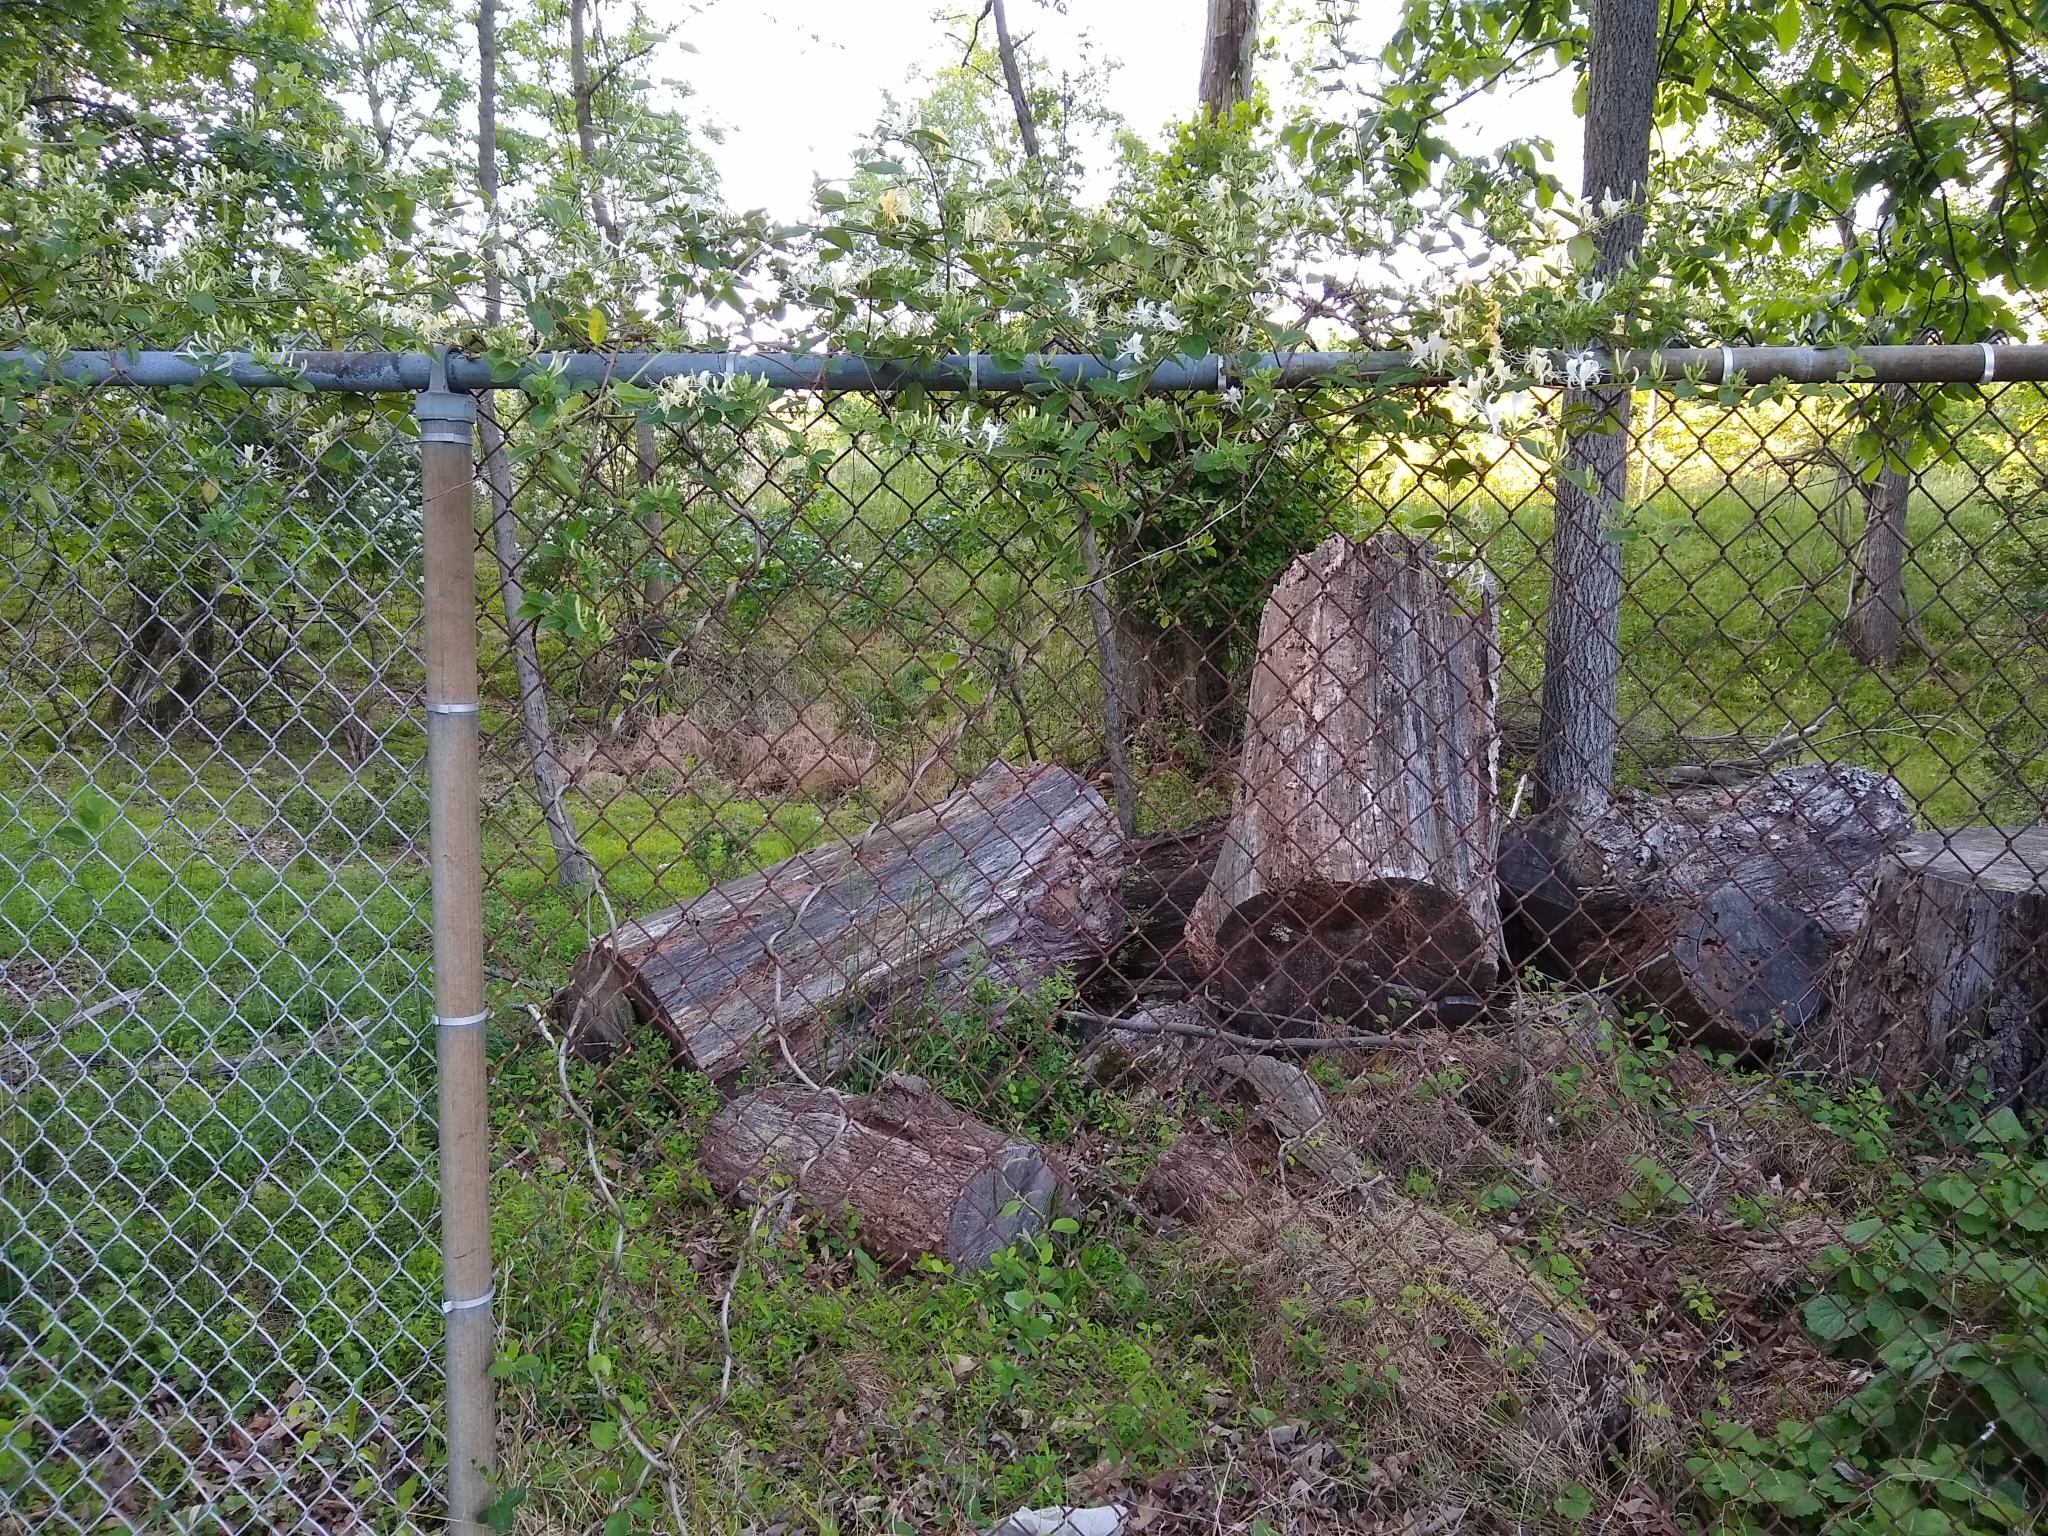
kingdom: Plantae
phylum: Tracheophyta
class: Magnoliopsida
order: Dipsacales
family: Caprifoliaceae
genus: Lonicera
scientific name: Lonicera japonica
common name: Japanese honeysuckle
